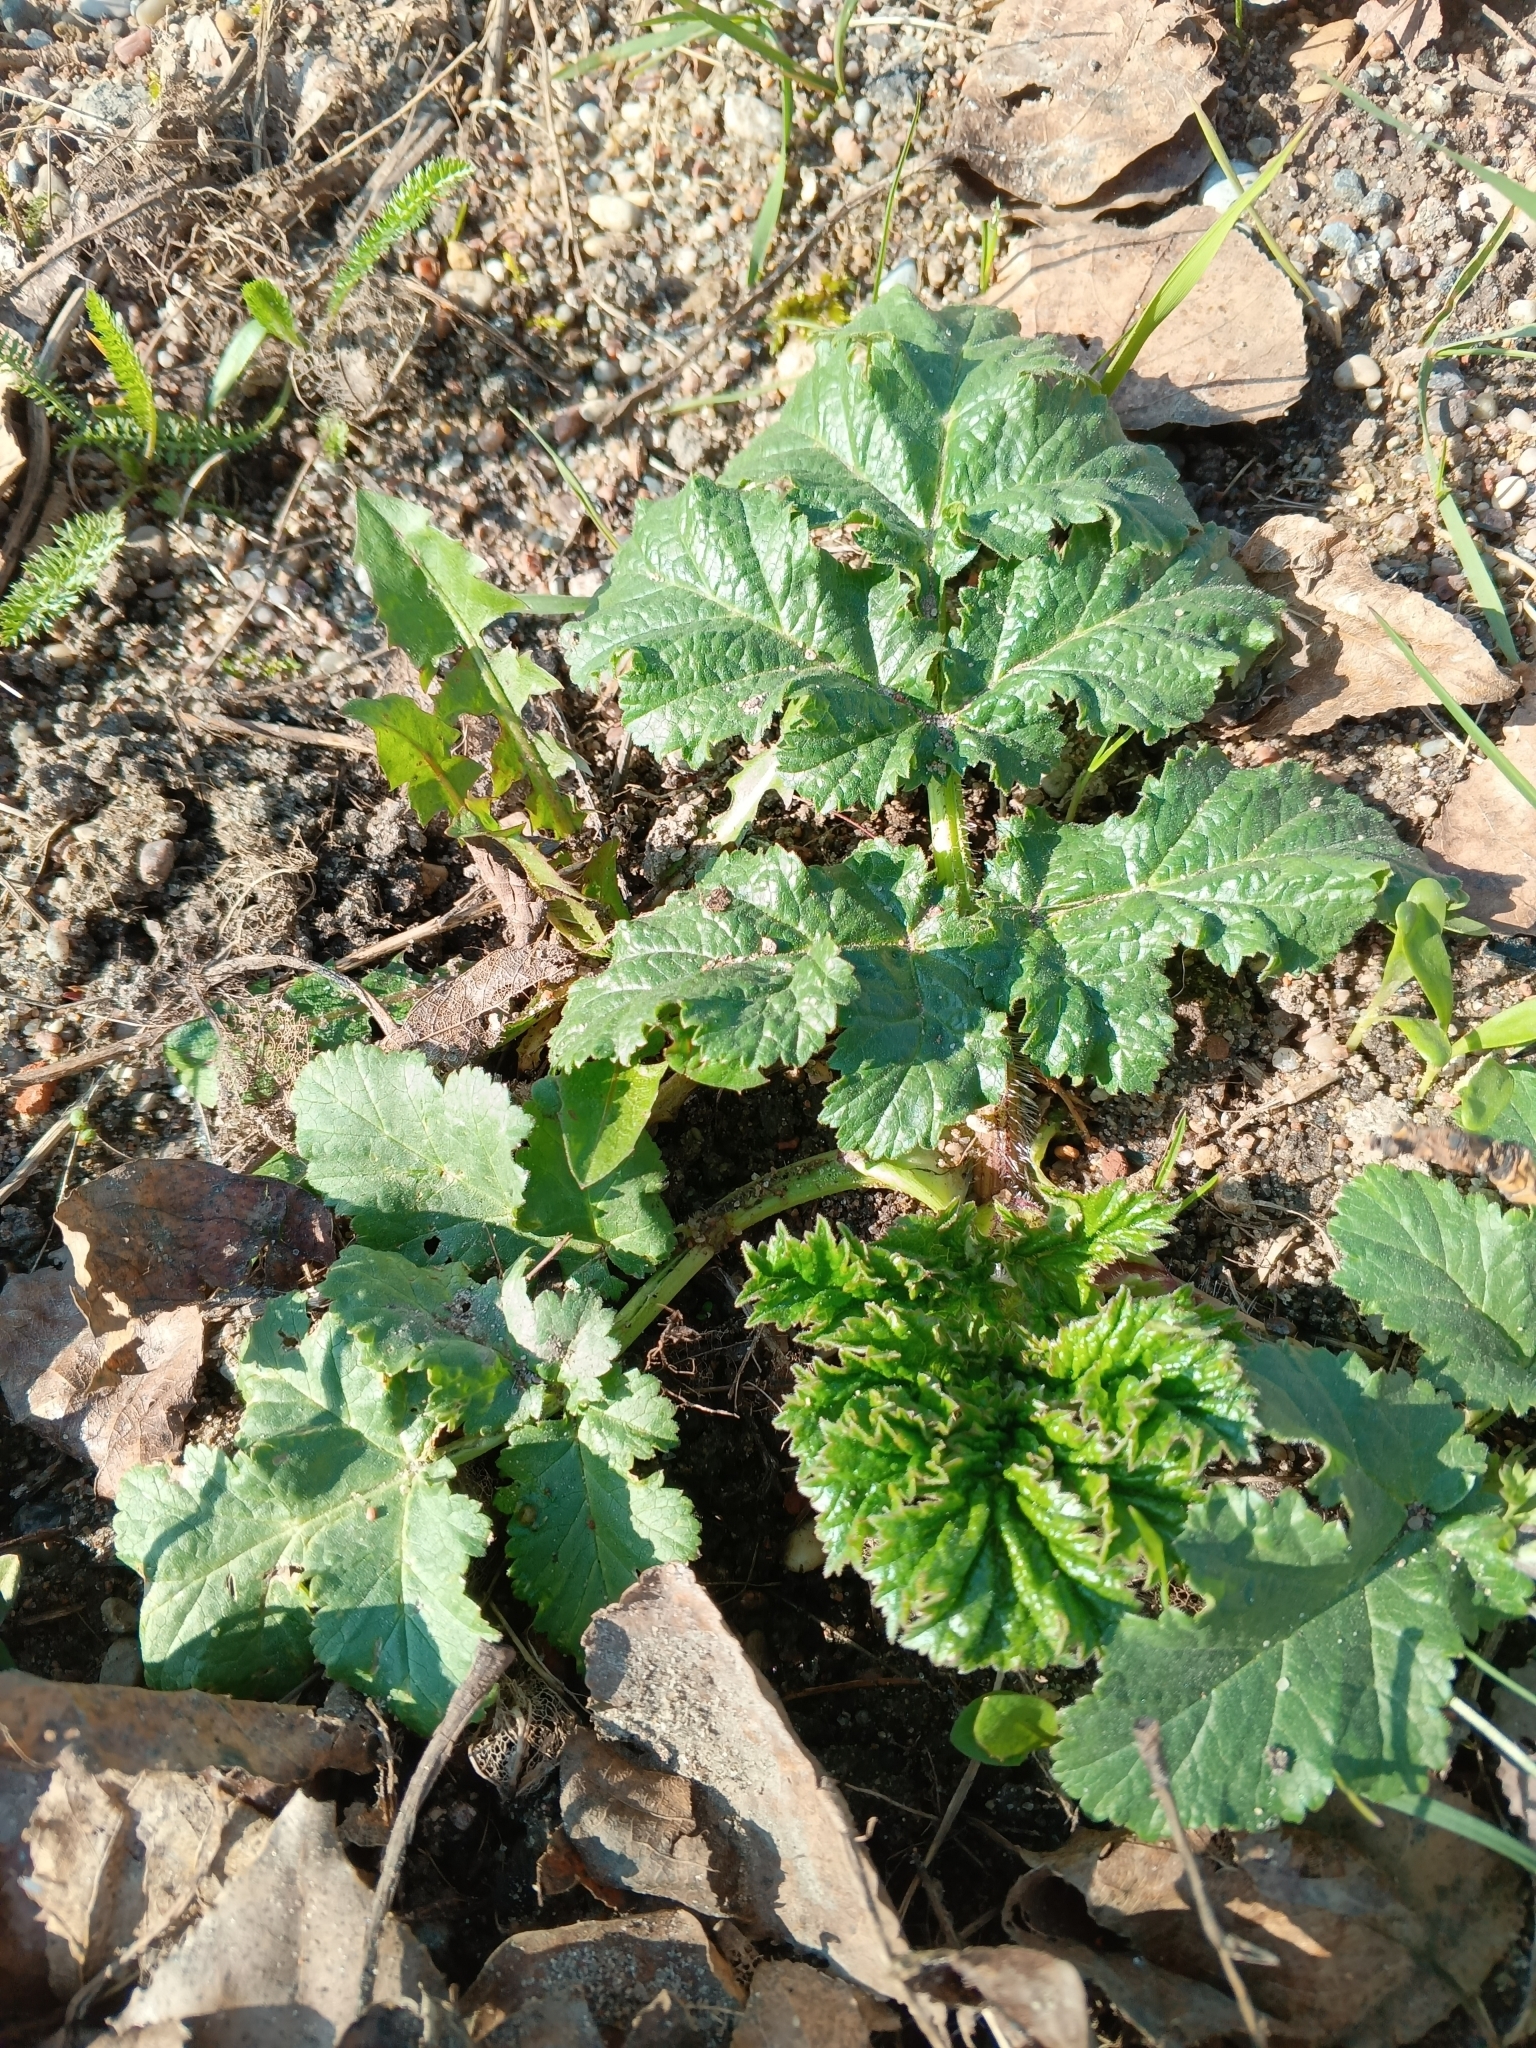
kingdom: Plantae
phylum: Tracheophyta
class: Magnoliopsida
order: Apiales
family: Apiaceae
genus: Heracleum
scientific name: Heracleum sosnowskyi
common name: Sosnowsky's hogweed
